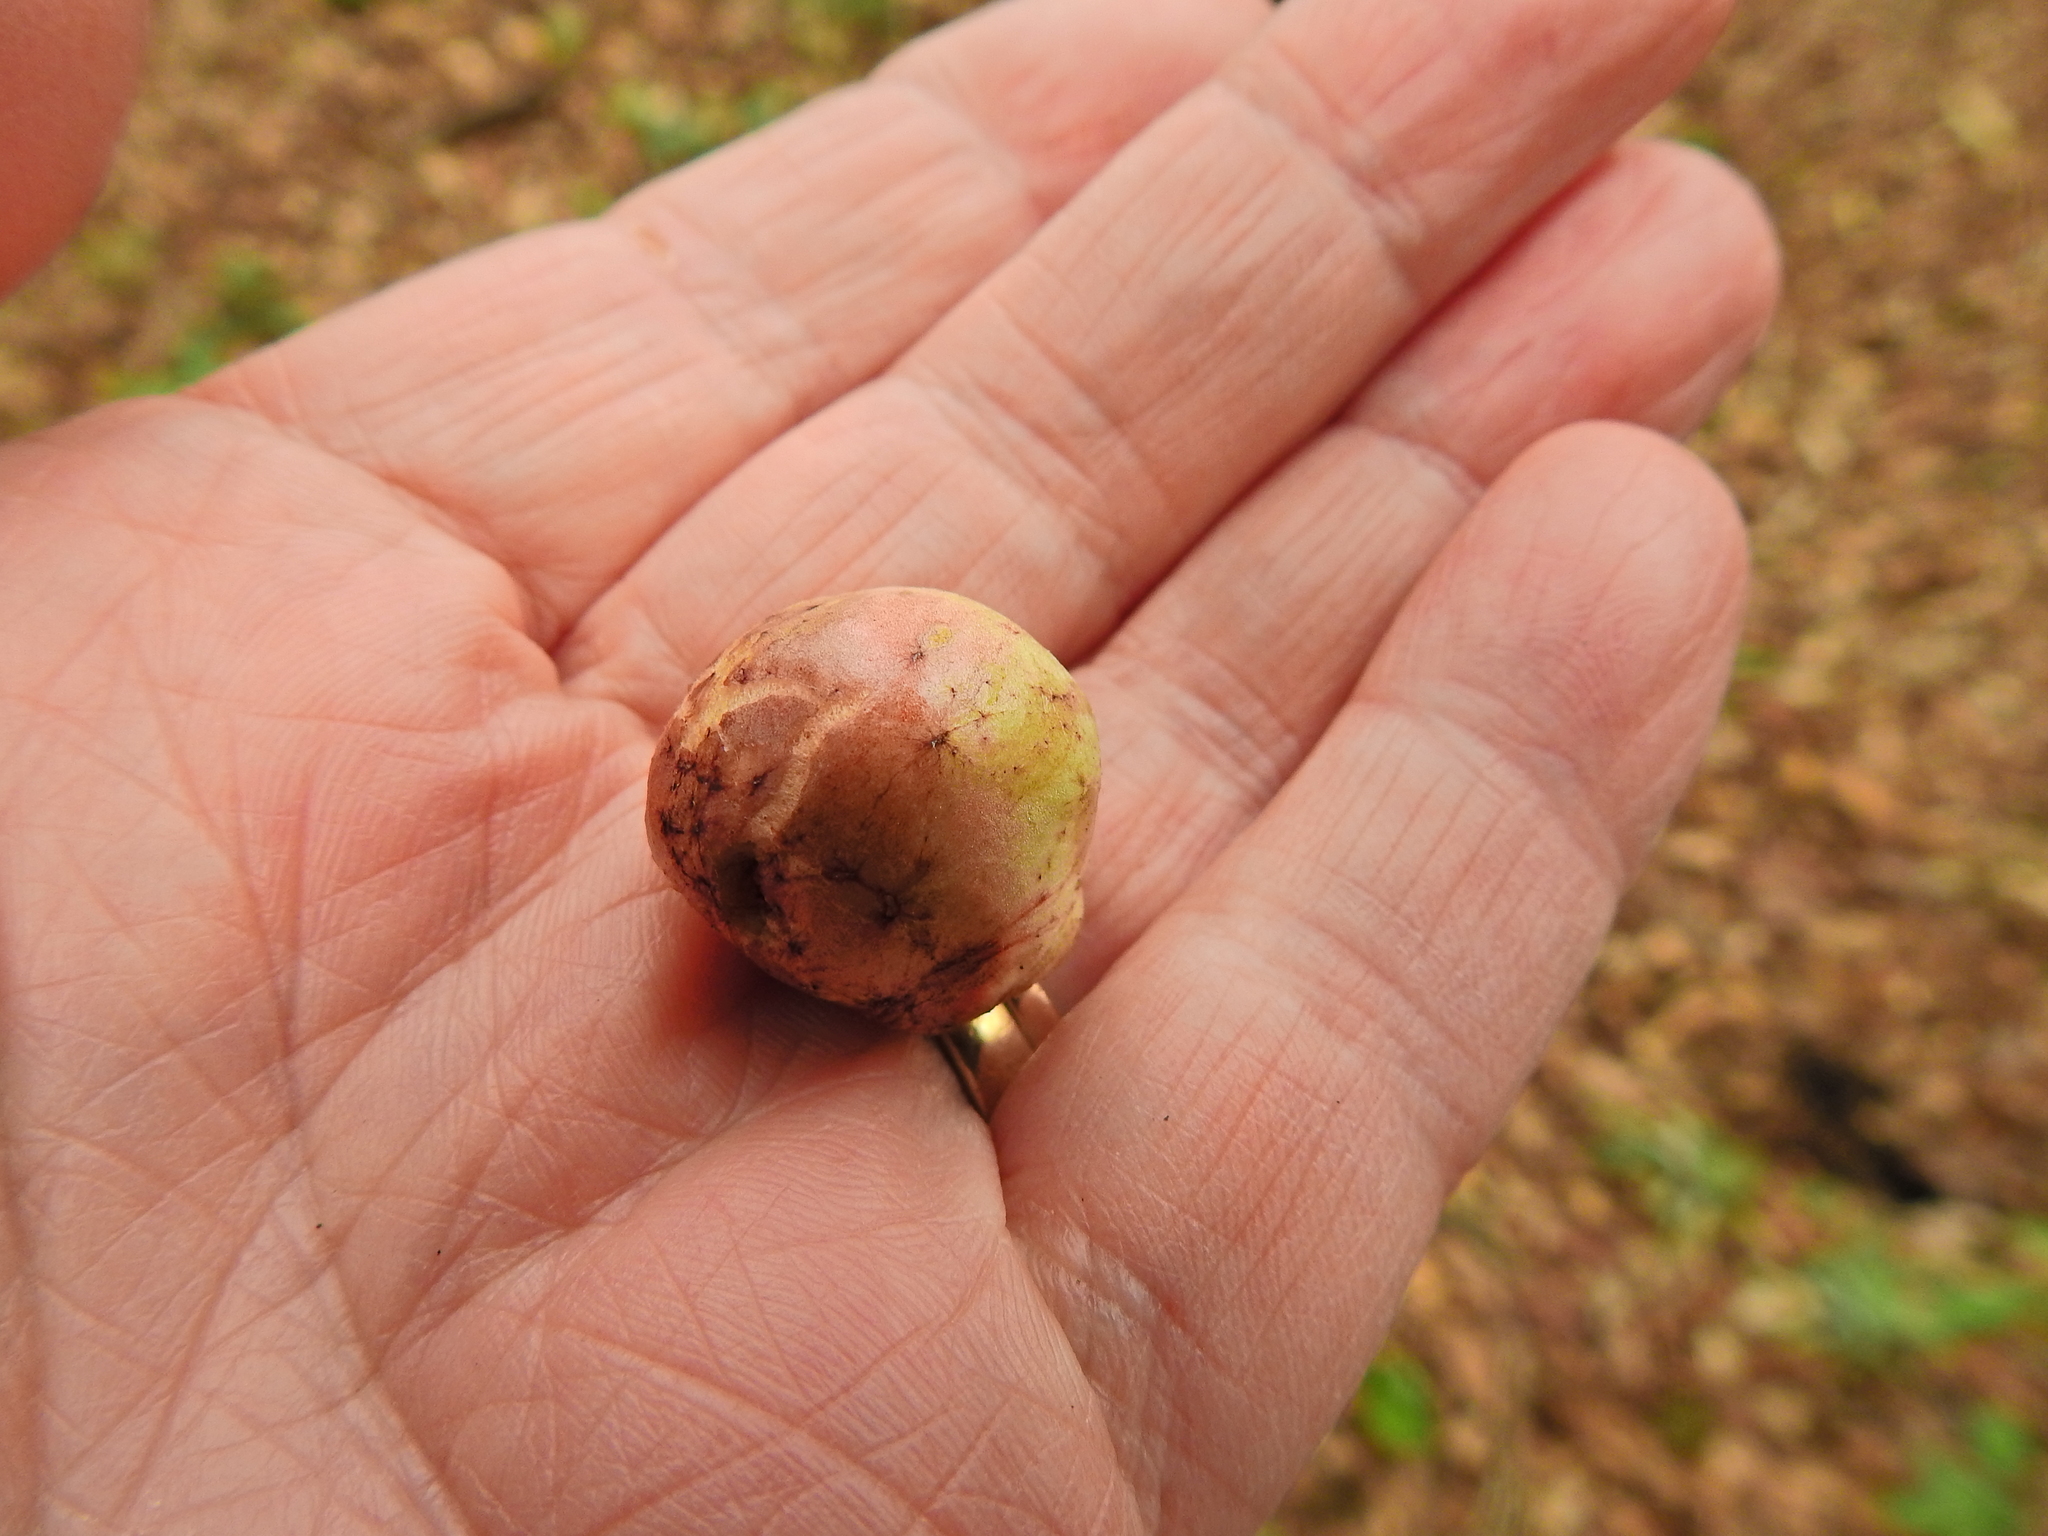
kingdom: Animalia
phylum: Arthropoda
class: Insecta
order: Hymenoptera
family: Cynipidae
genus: Biorhiza
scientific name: Biorhiza pallida
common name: Oak apple
